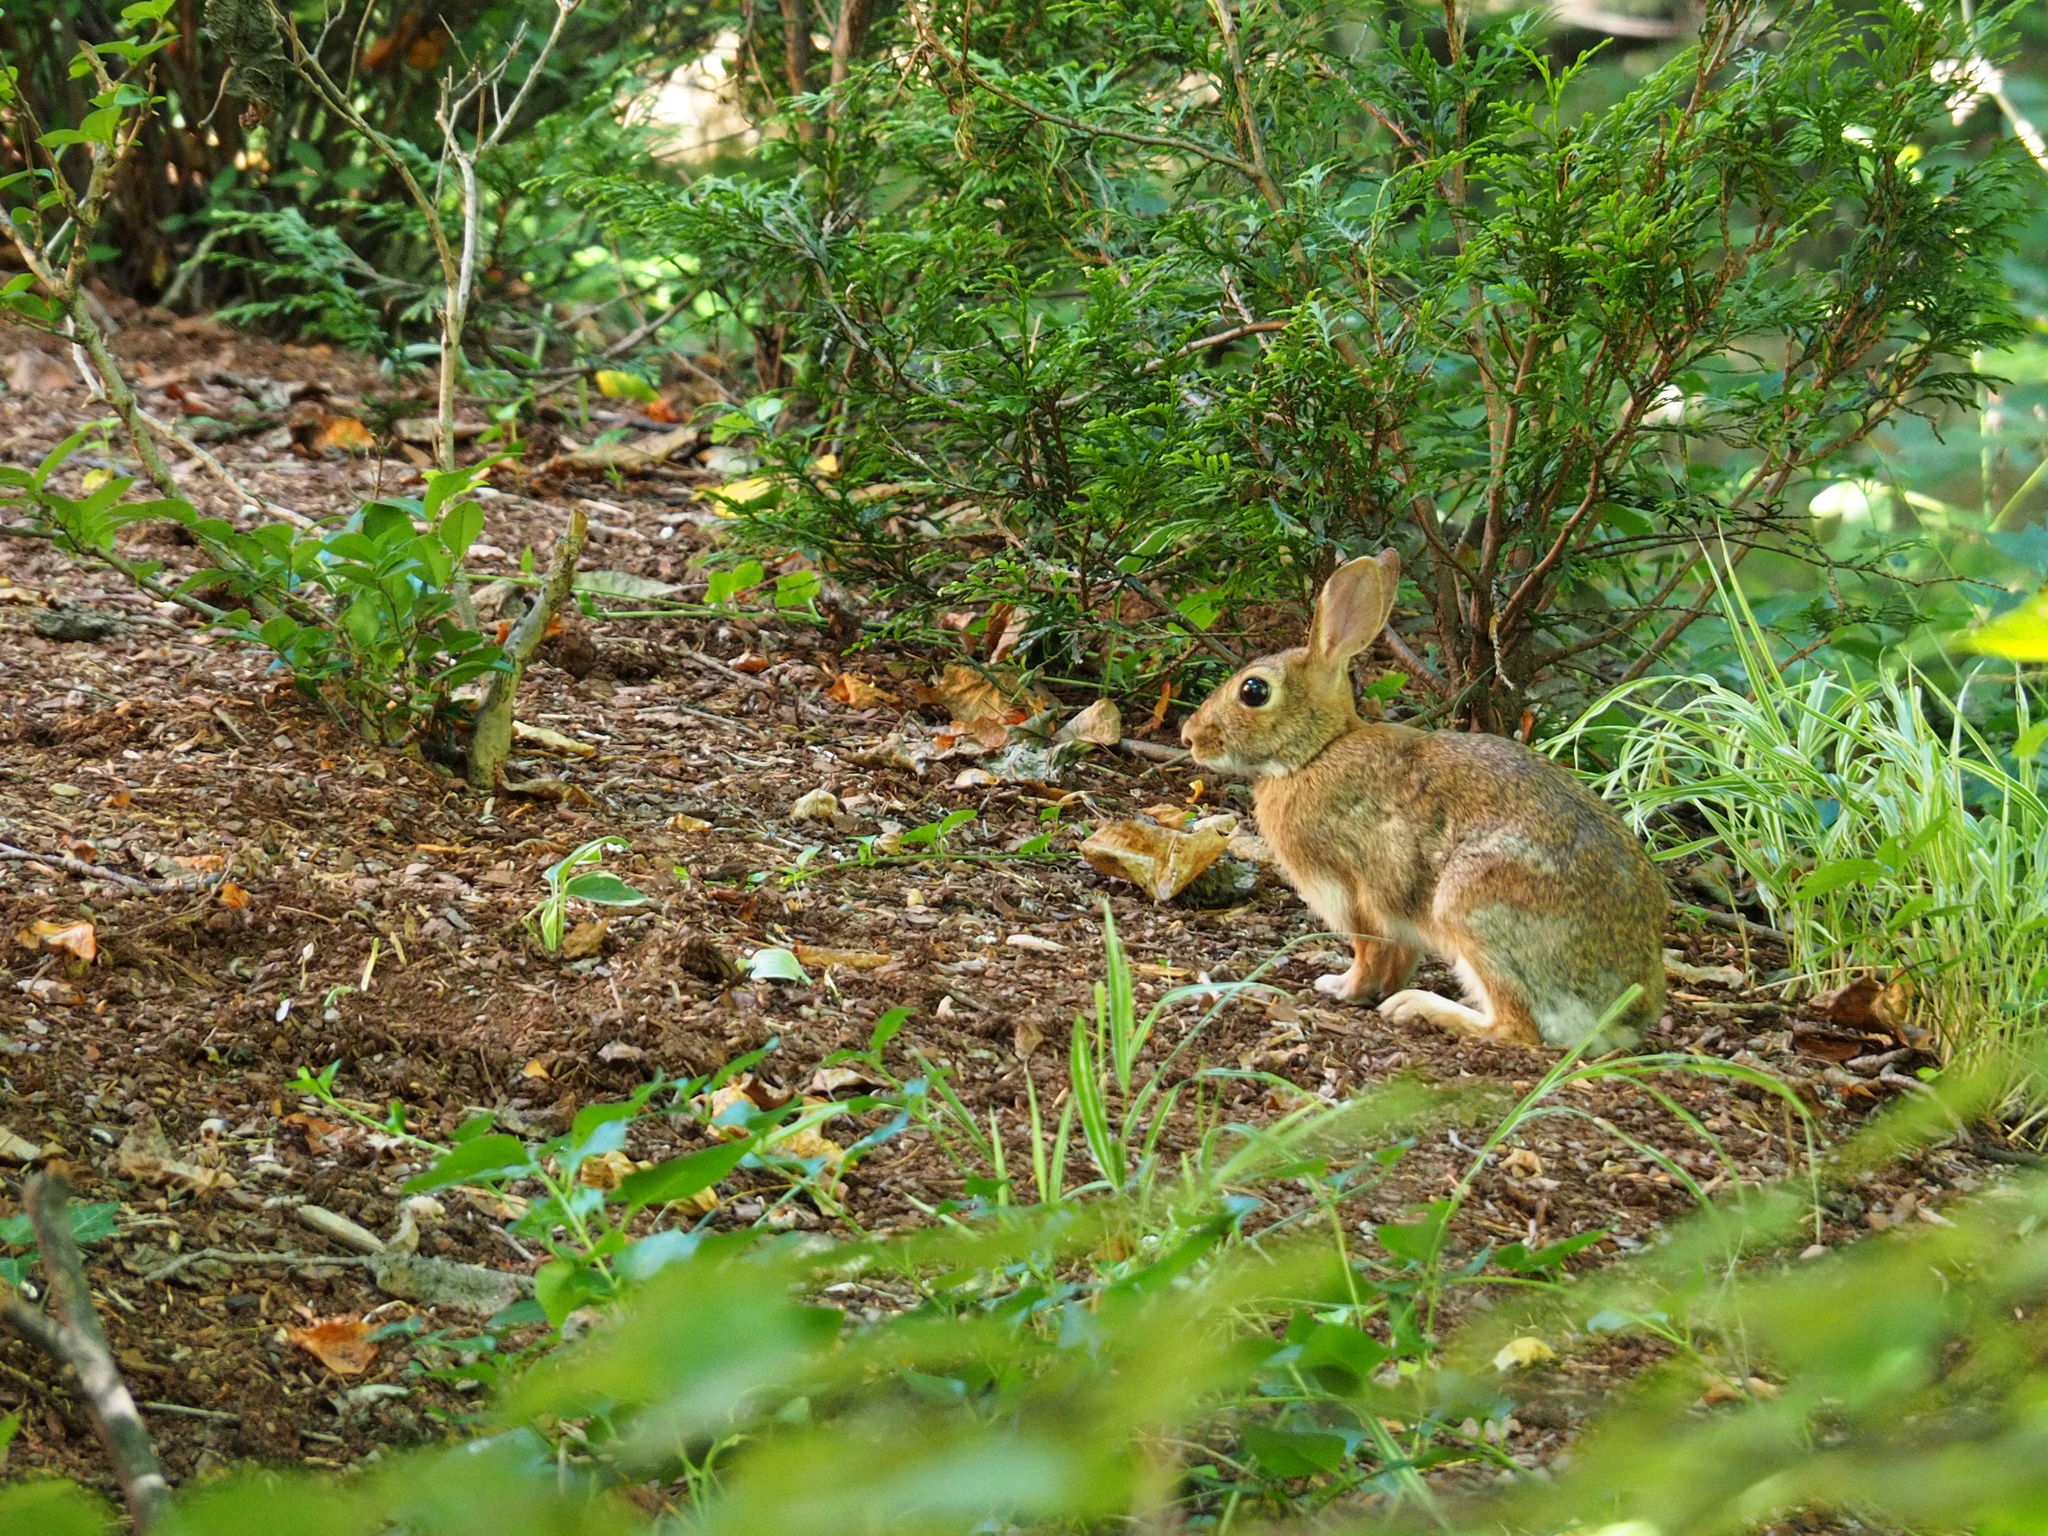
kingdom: Animalia
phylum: Chordata
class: Mammalia
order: Lagomorpha
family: Leporidae
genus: Sylvilagus
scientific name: Sylvilagus floridanus
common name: Eastern cottontail
